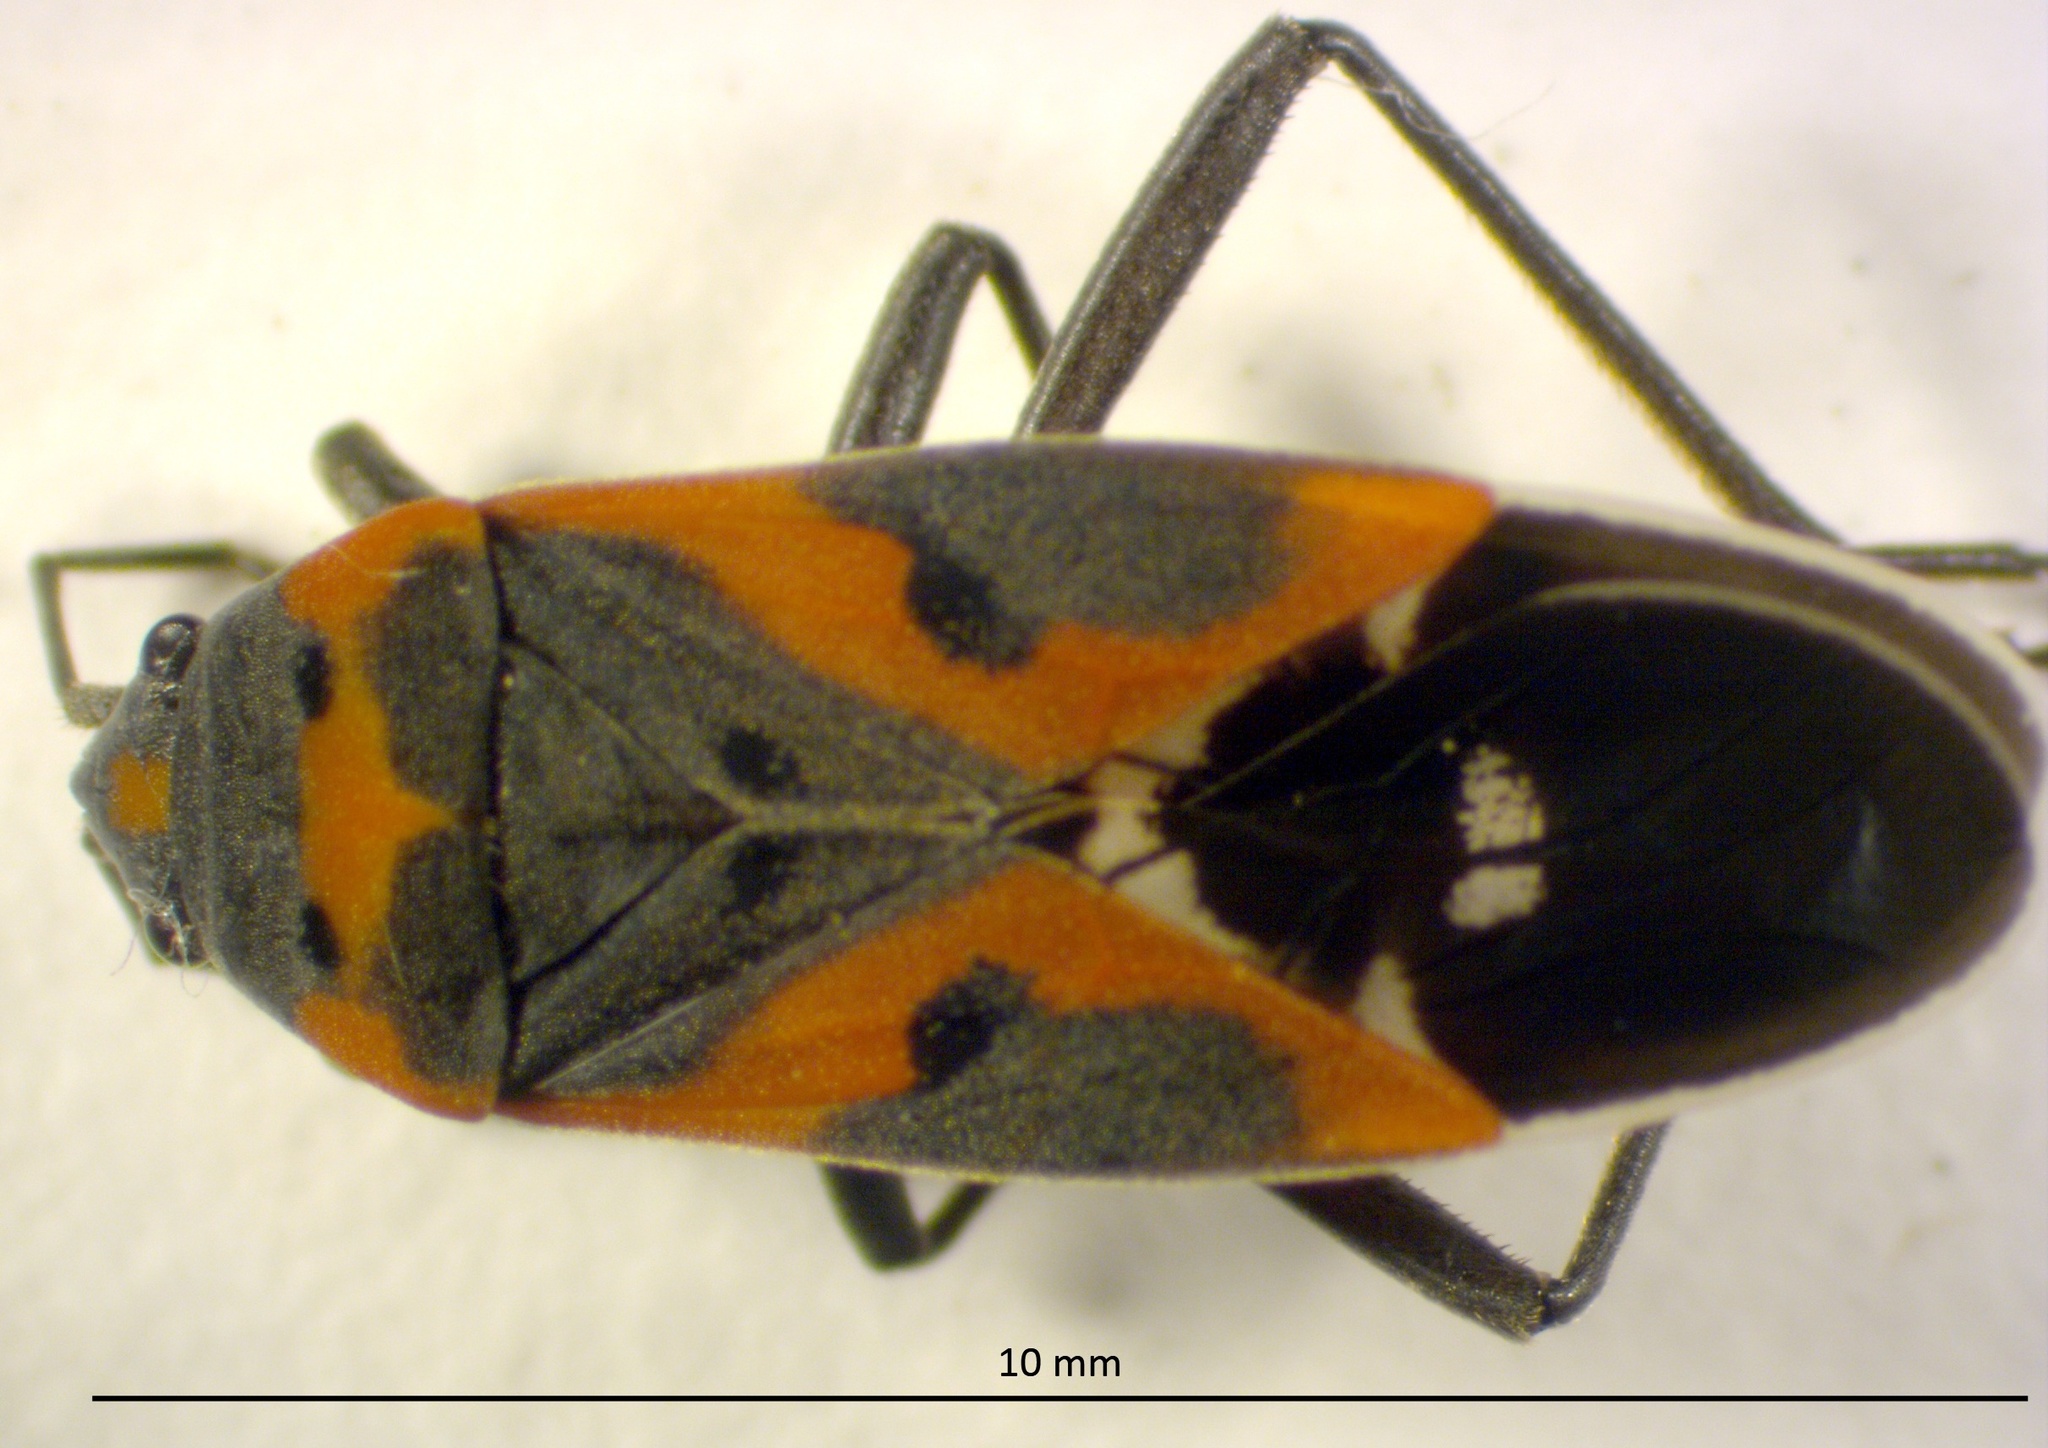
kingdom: Animalia
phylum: Arthropoda
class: Insecta
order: Hemiptera
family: Lygaeidae
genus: Lygaeus
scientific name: Lygaeus kalmii
